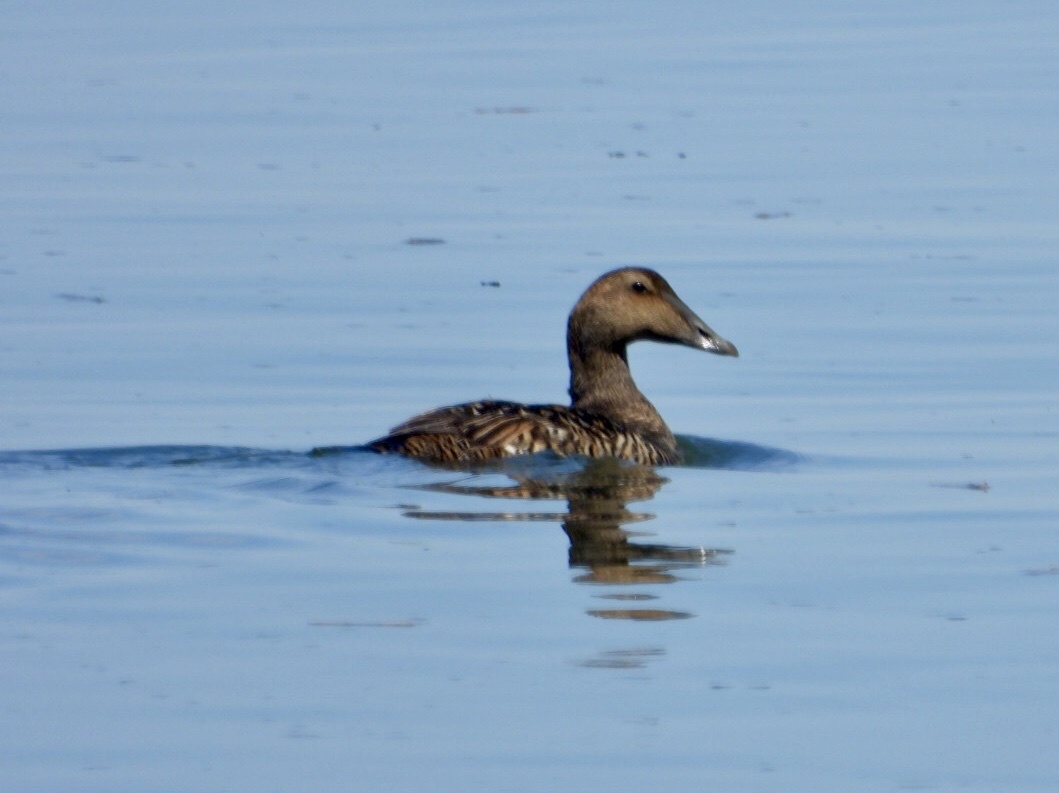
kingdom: Animalia
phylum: Chordata
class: Aves
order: Anseriformes
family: Anatidae
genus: Somateria
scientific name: Somateria mollissima
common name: Common eider
